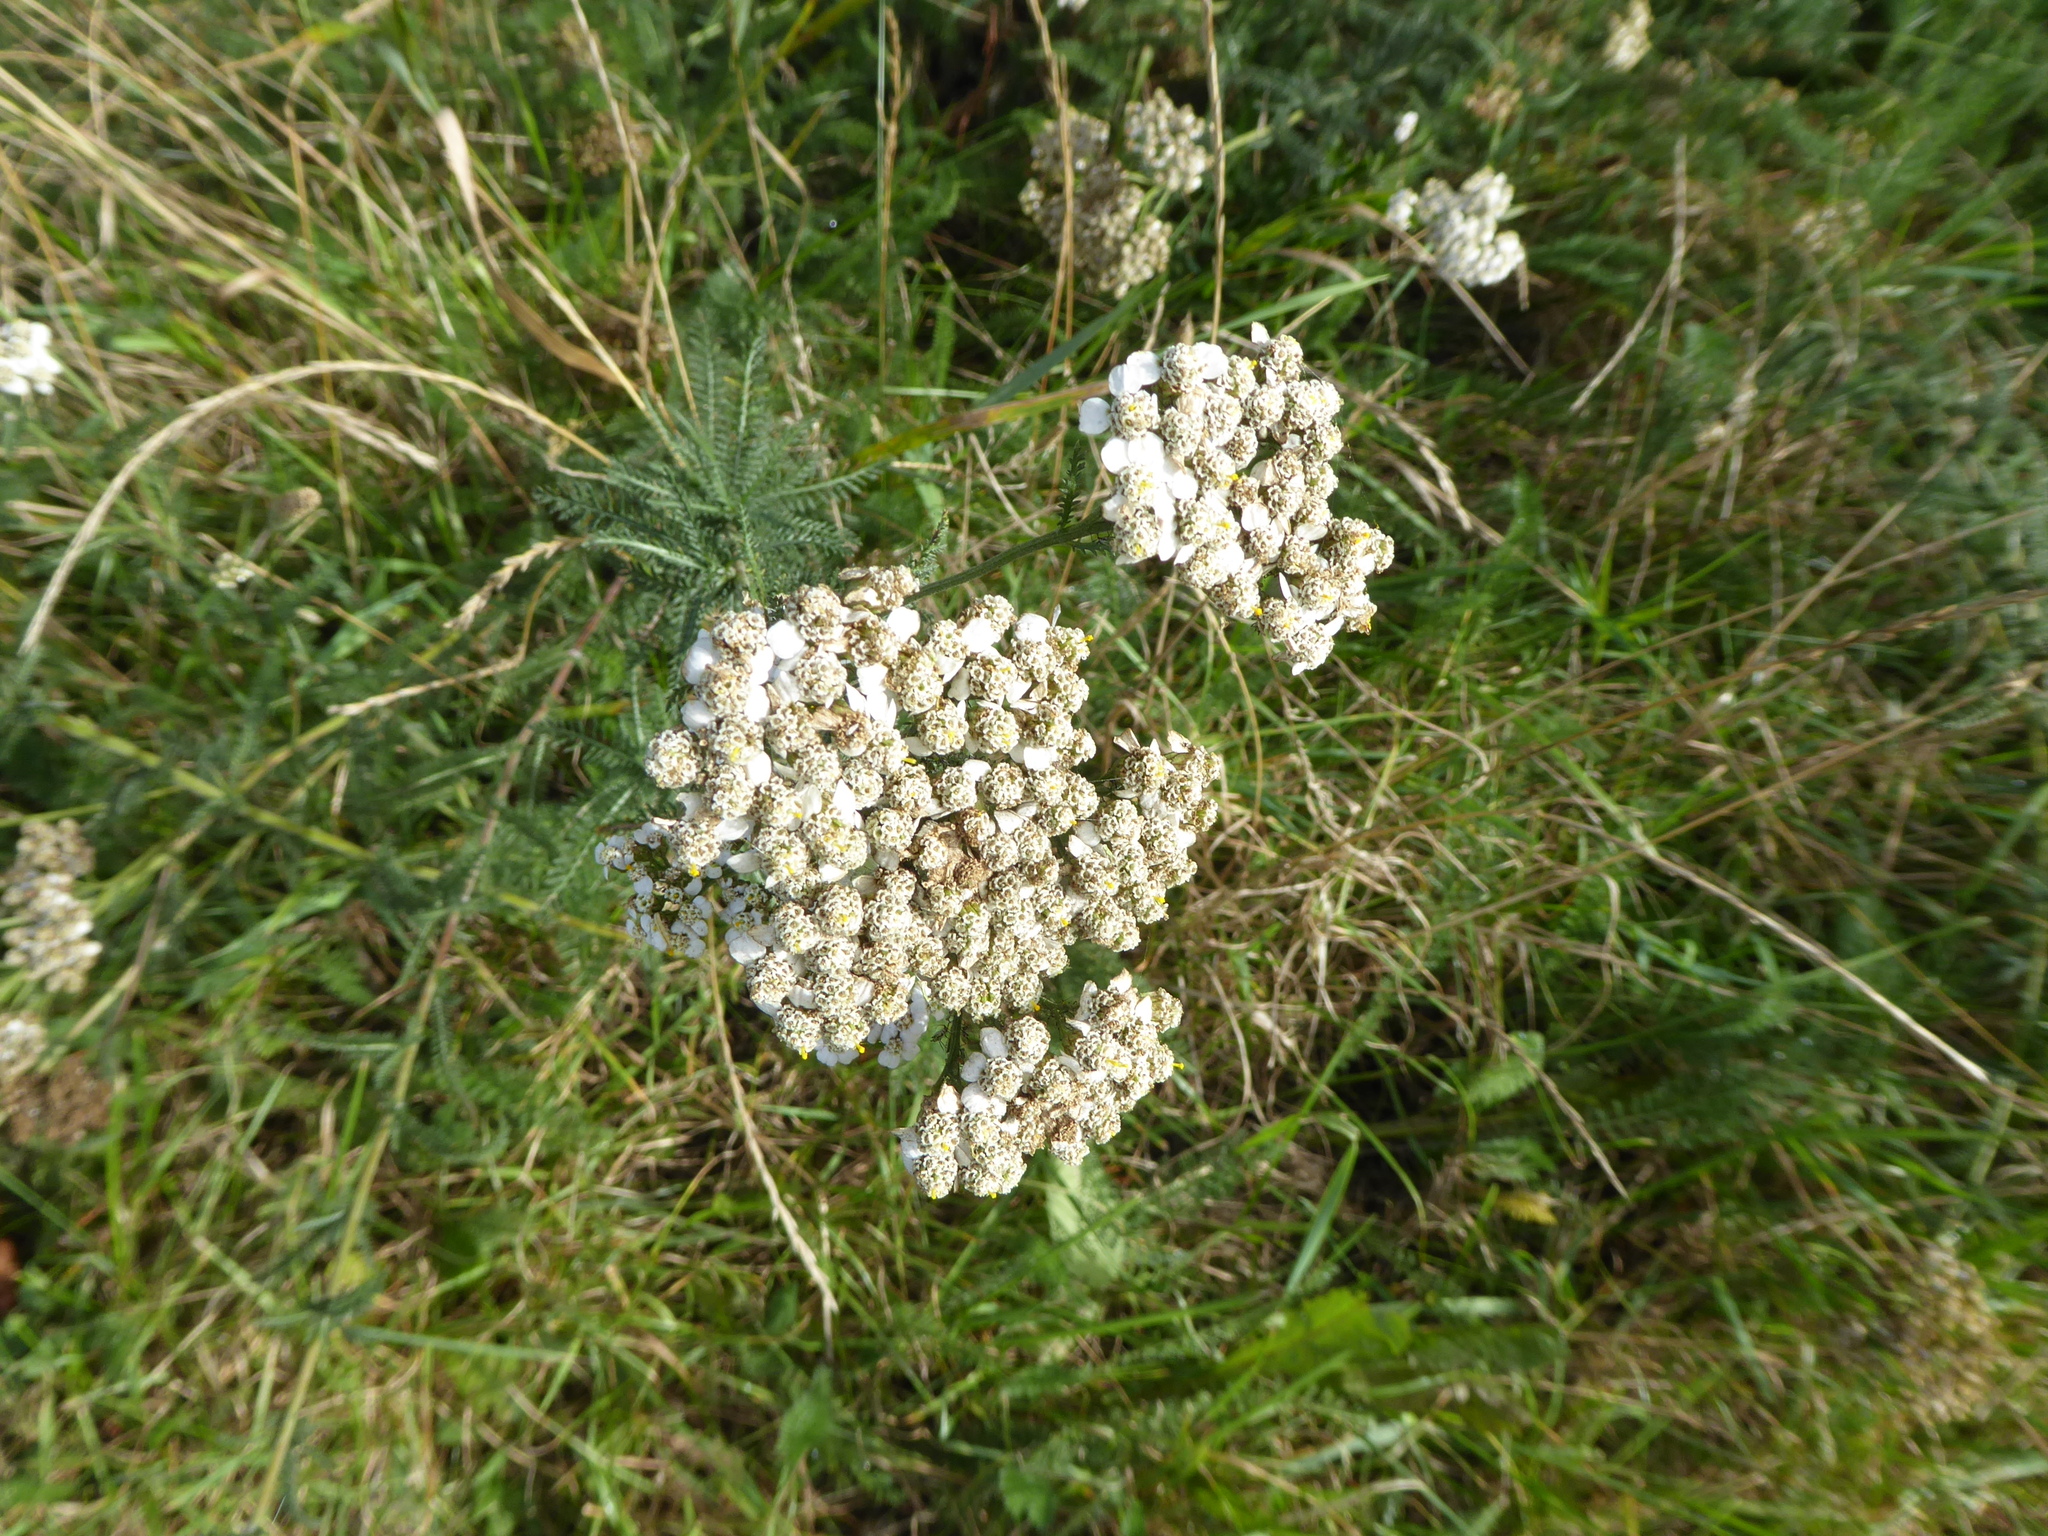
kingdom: Plantae
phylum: Tracheophyta
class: Magnoliopsida
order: Asterales
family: Asteraceae
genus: Achillea
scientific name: Achillea millefolium
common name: Yarrow
